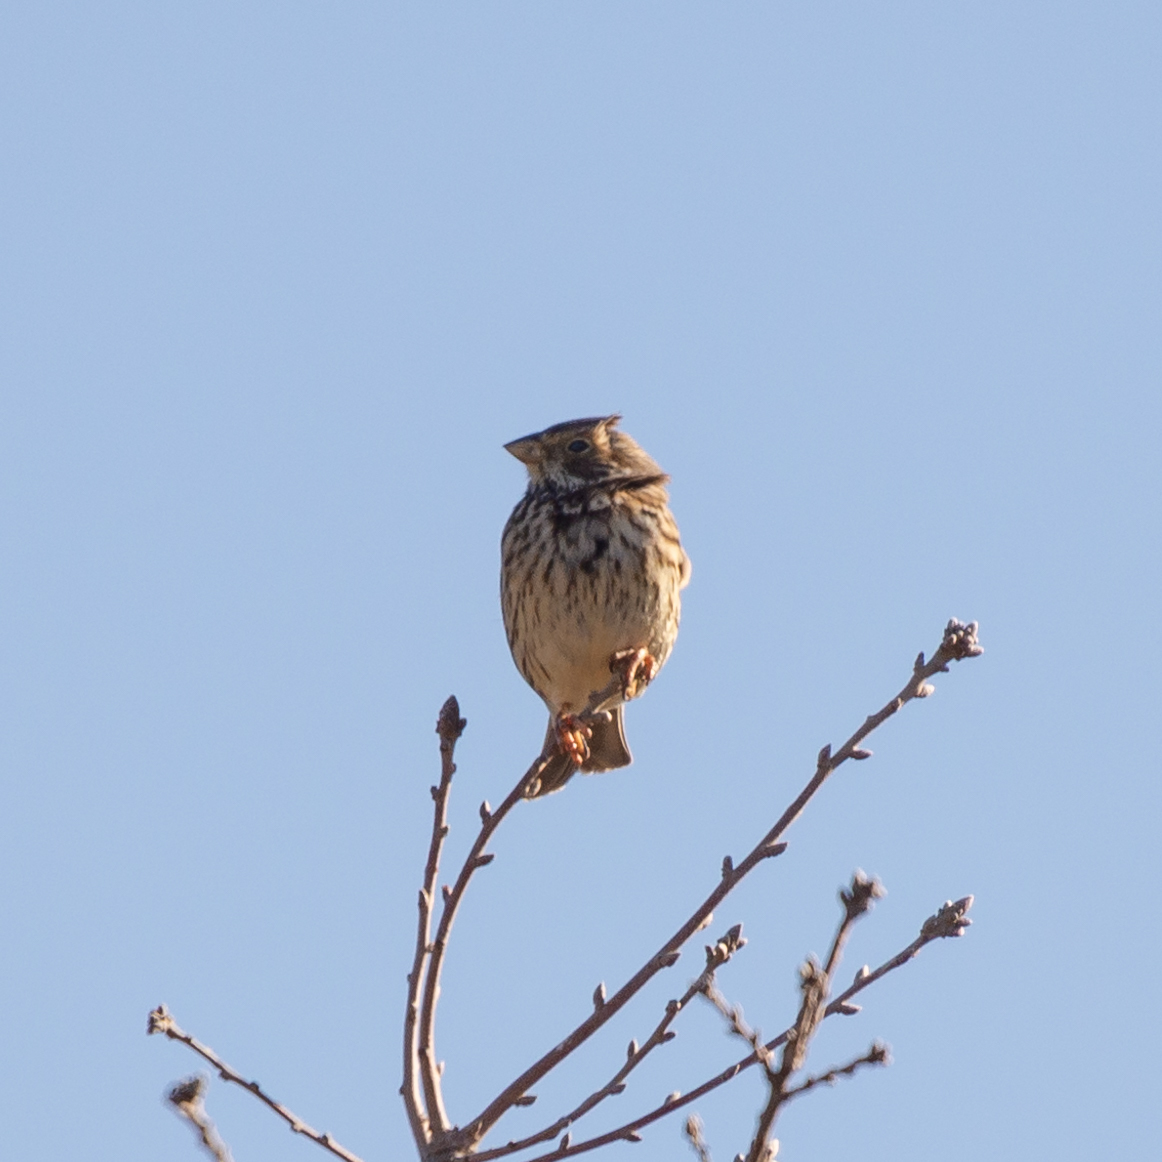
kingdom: Animalia
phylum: Chordata
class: Aves
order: Passeriformes
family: Emberizidae
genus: Emberiza
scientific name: Emberiza calandra
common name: Corn bunting
